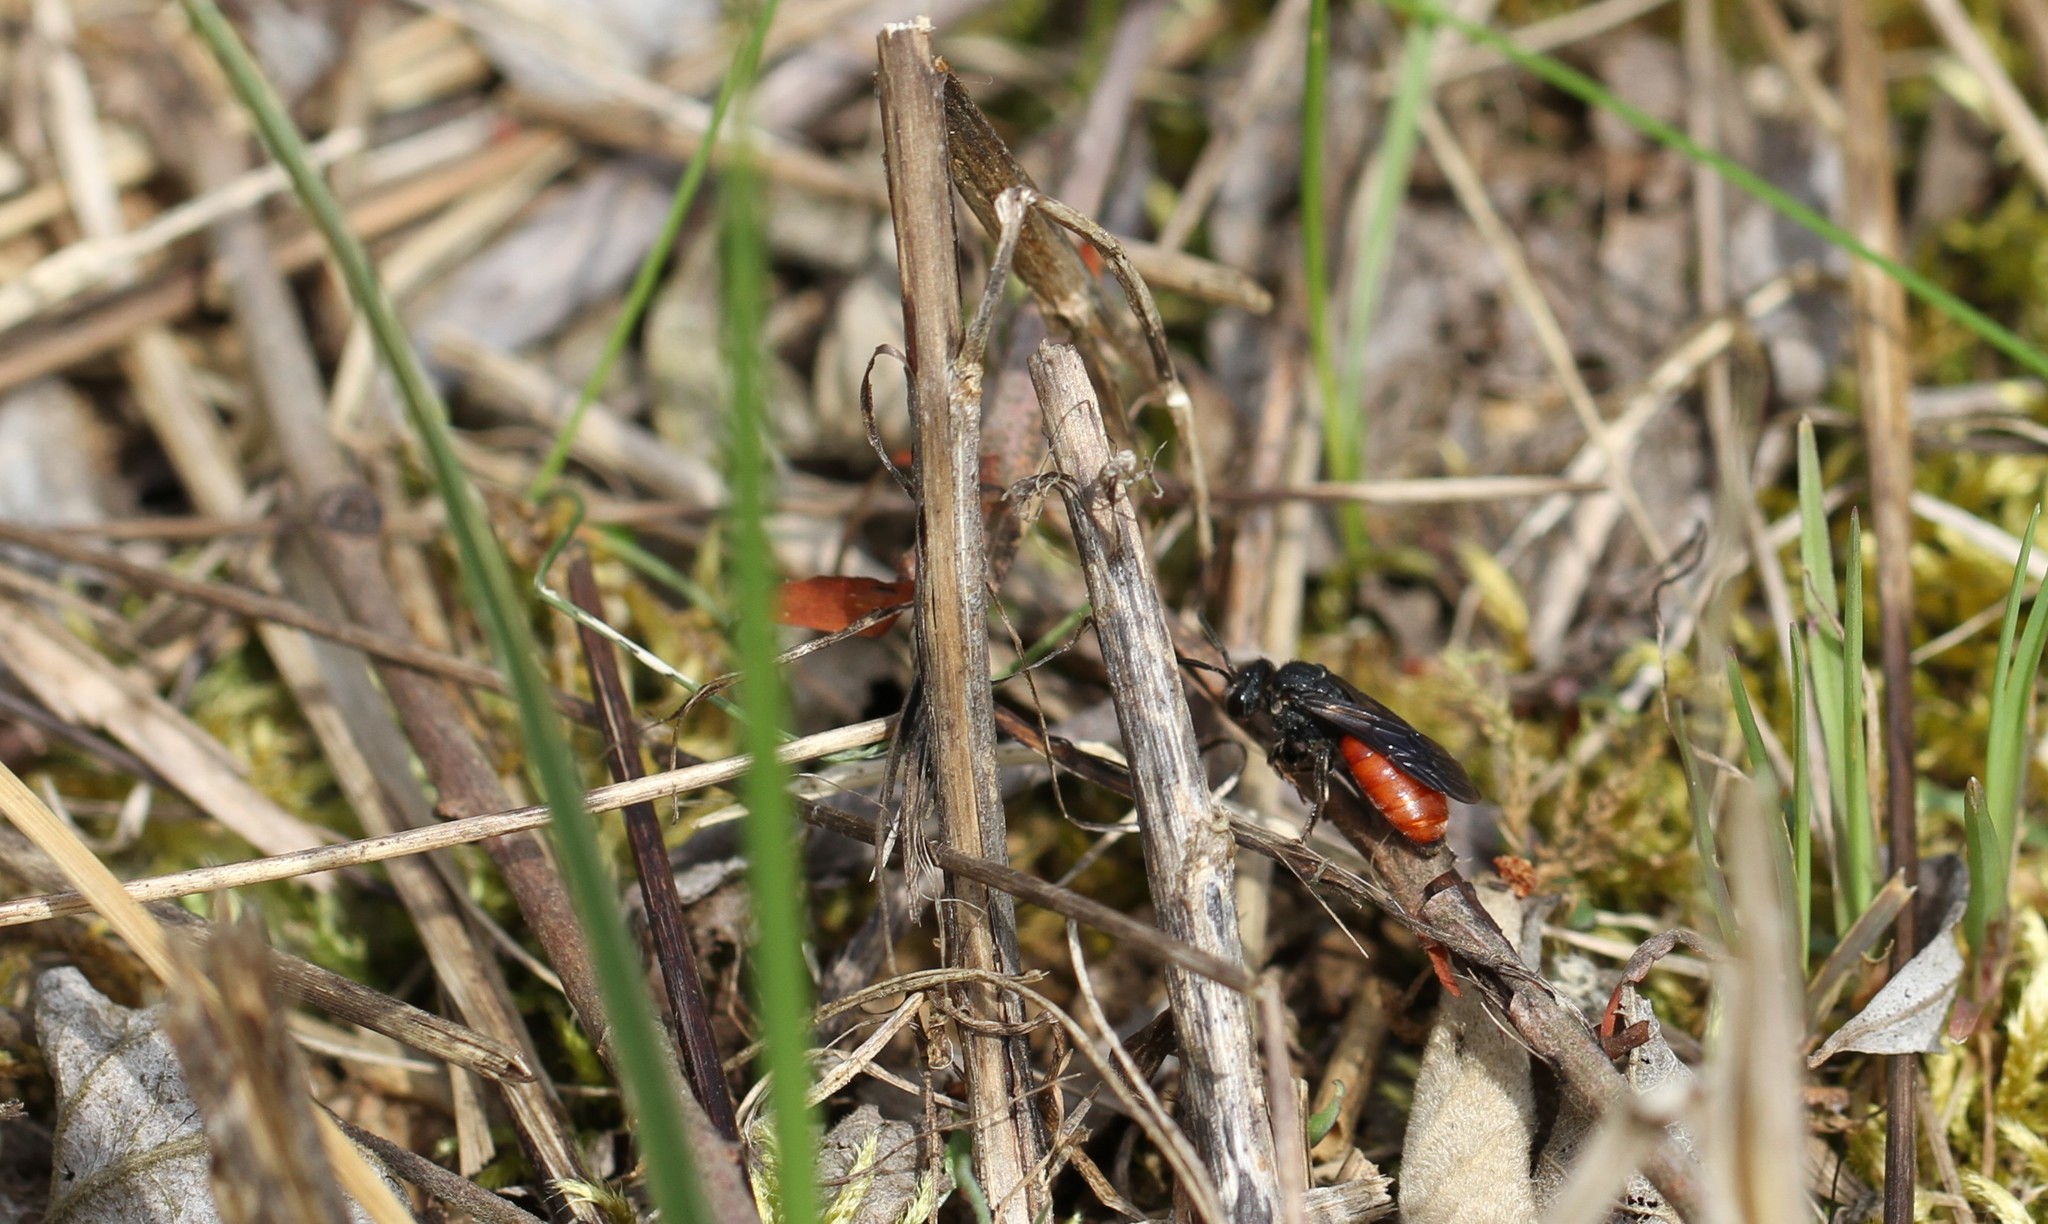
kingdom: Animalia
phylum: Arthropoda
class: Insecta
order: Hymenoptera
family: Halictidae
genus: Sphecodes
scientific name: Sphecodes albilabris
